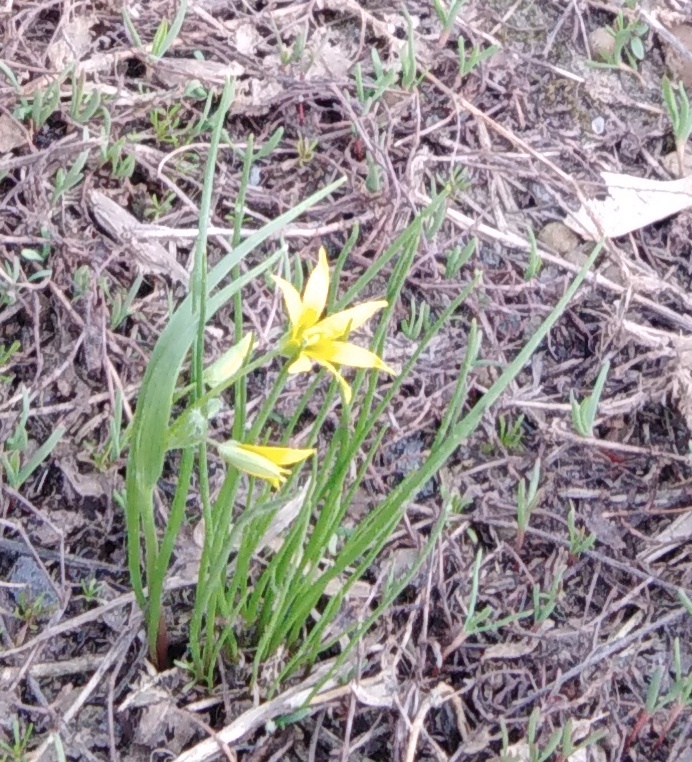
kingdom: Plantae
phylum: Tracheophyta
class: Liliopsida
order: Liliales
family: Liliaceae
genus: Gagea
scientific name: Gagea minima
